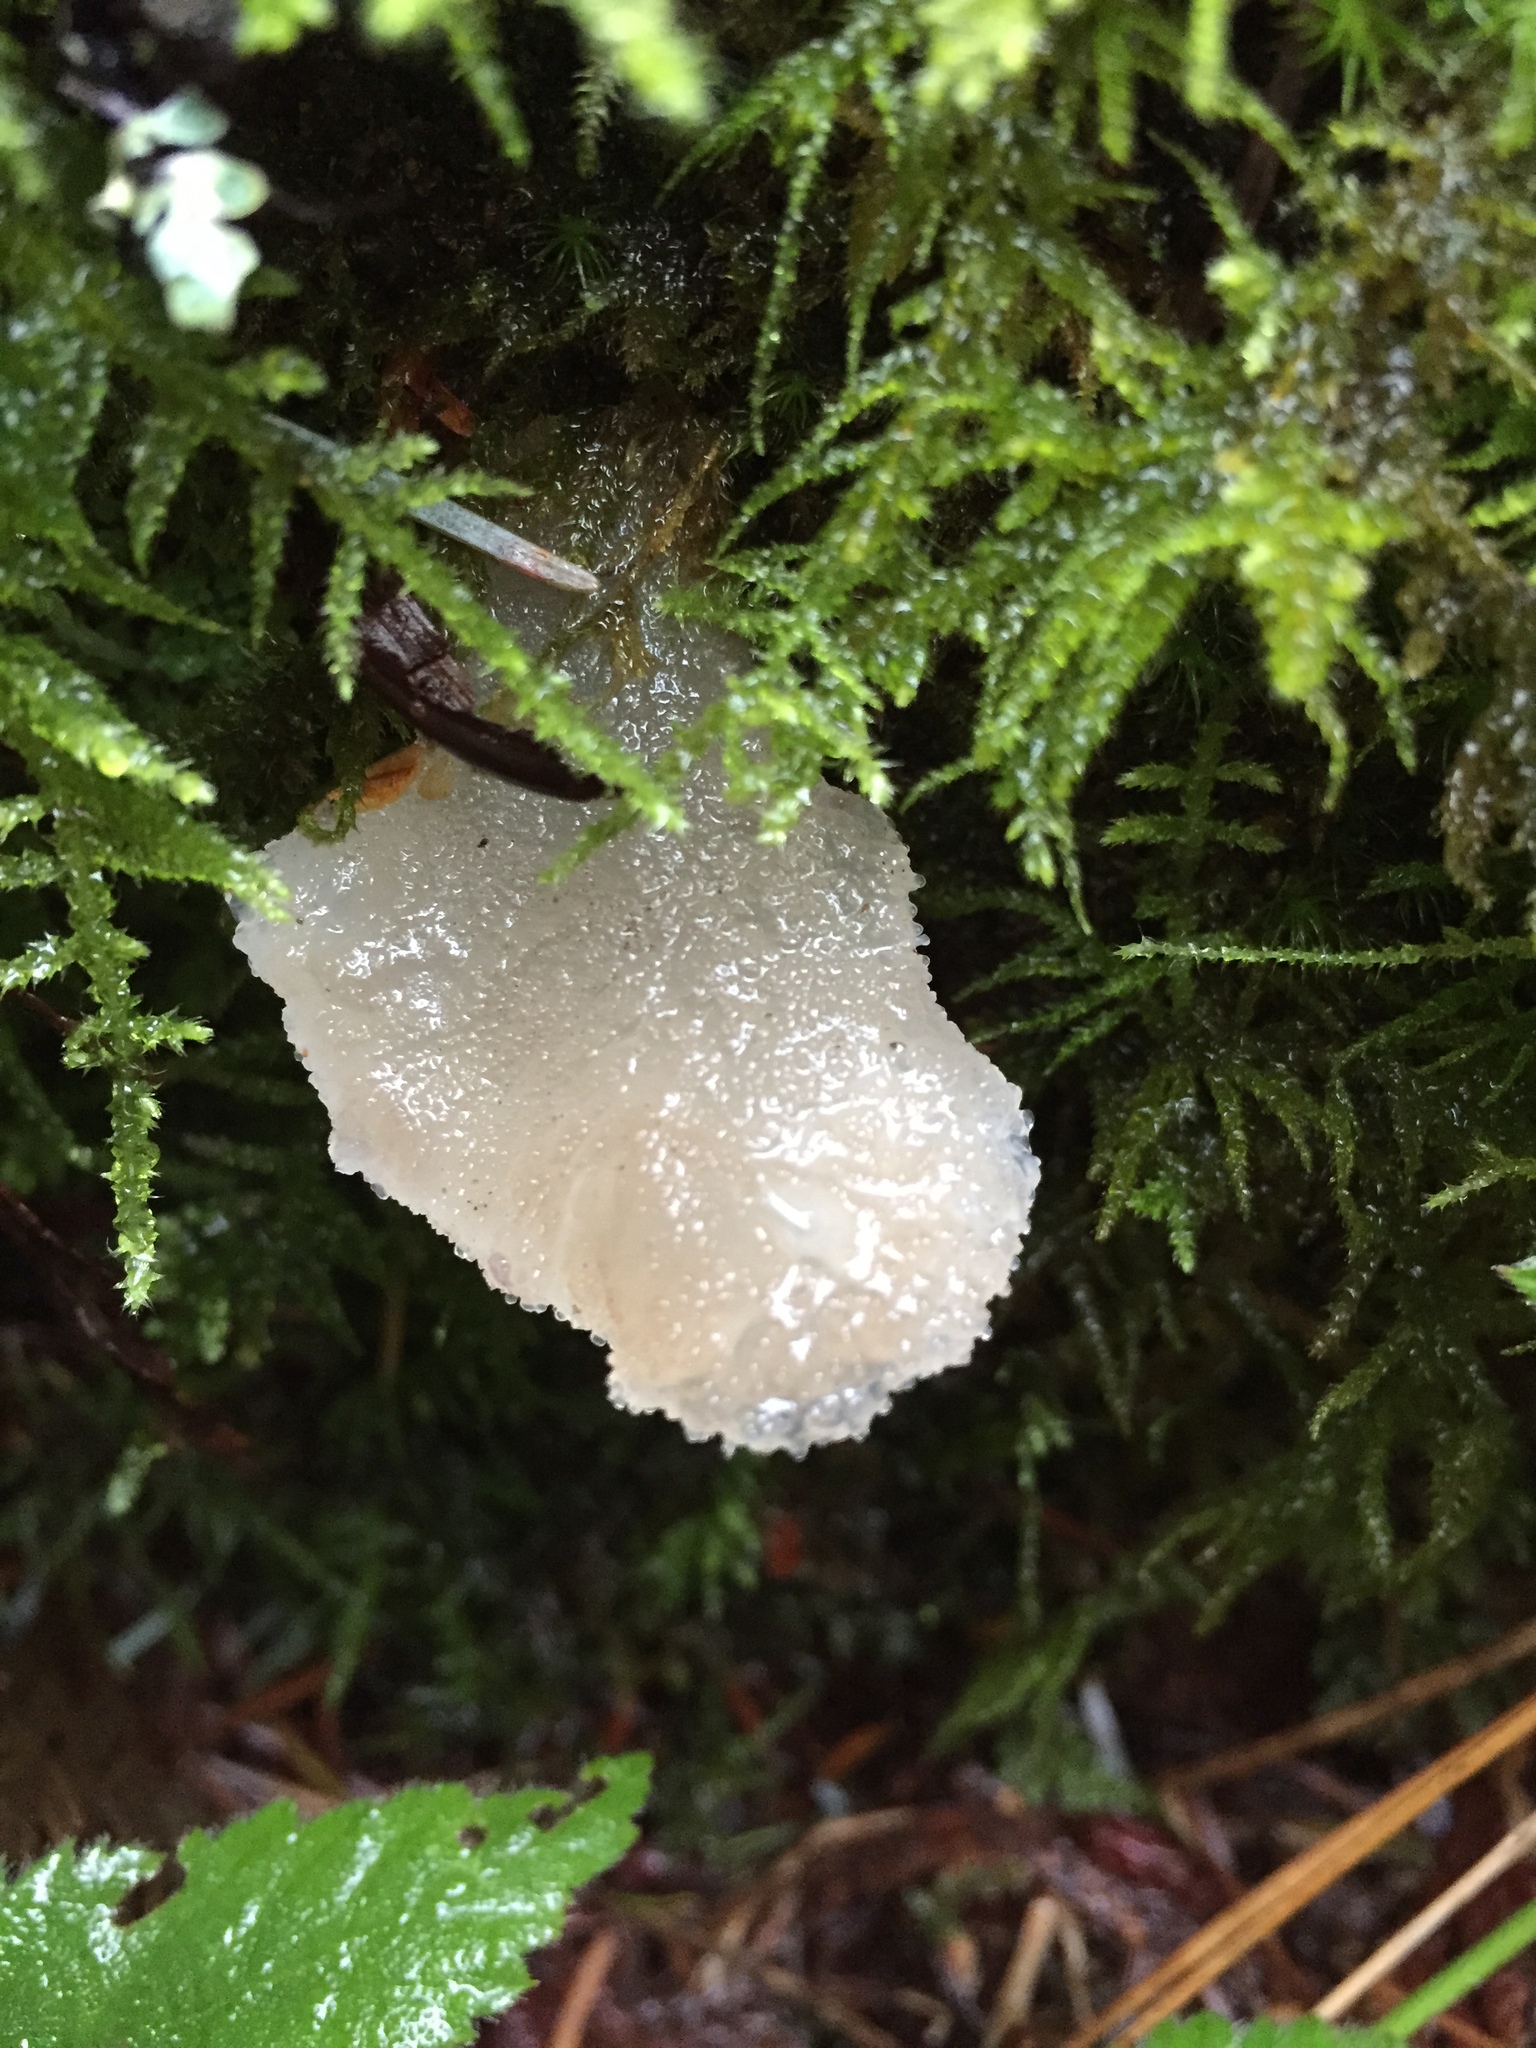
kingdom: Fungi
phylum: Basidiomycota
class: Agaricomycetes
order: Auriculariales
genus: Pseudohydnum
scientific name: Pseudohydnum gelatinosum
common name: Jelly tongue
